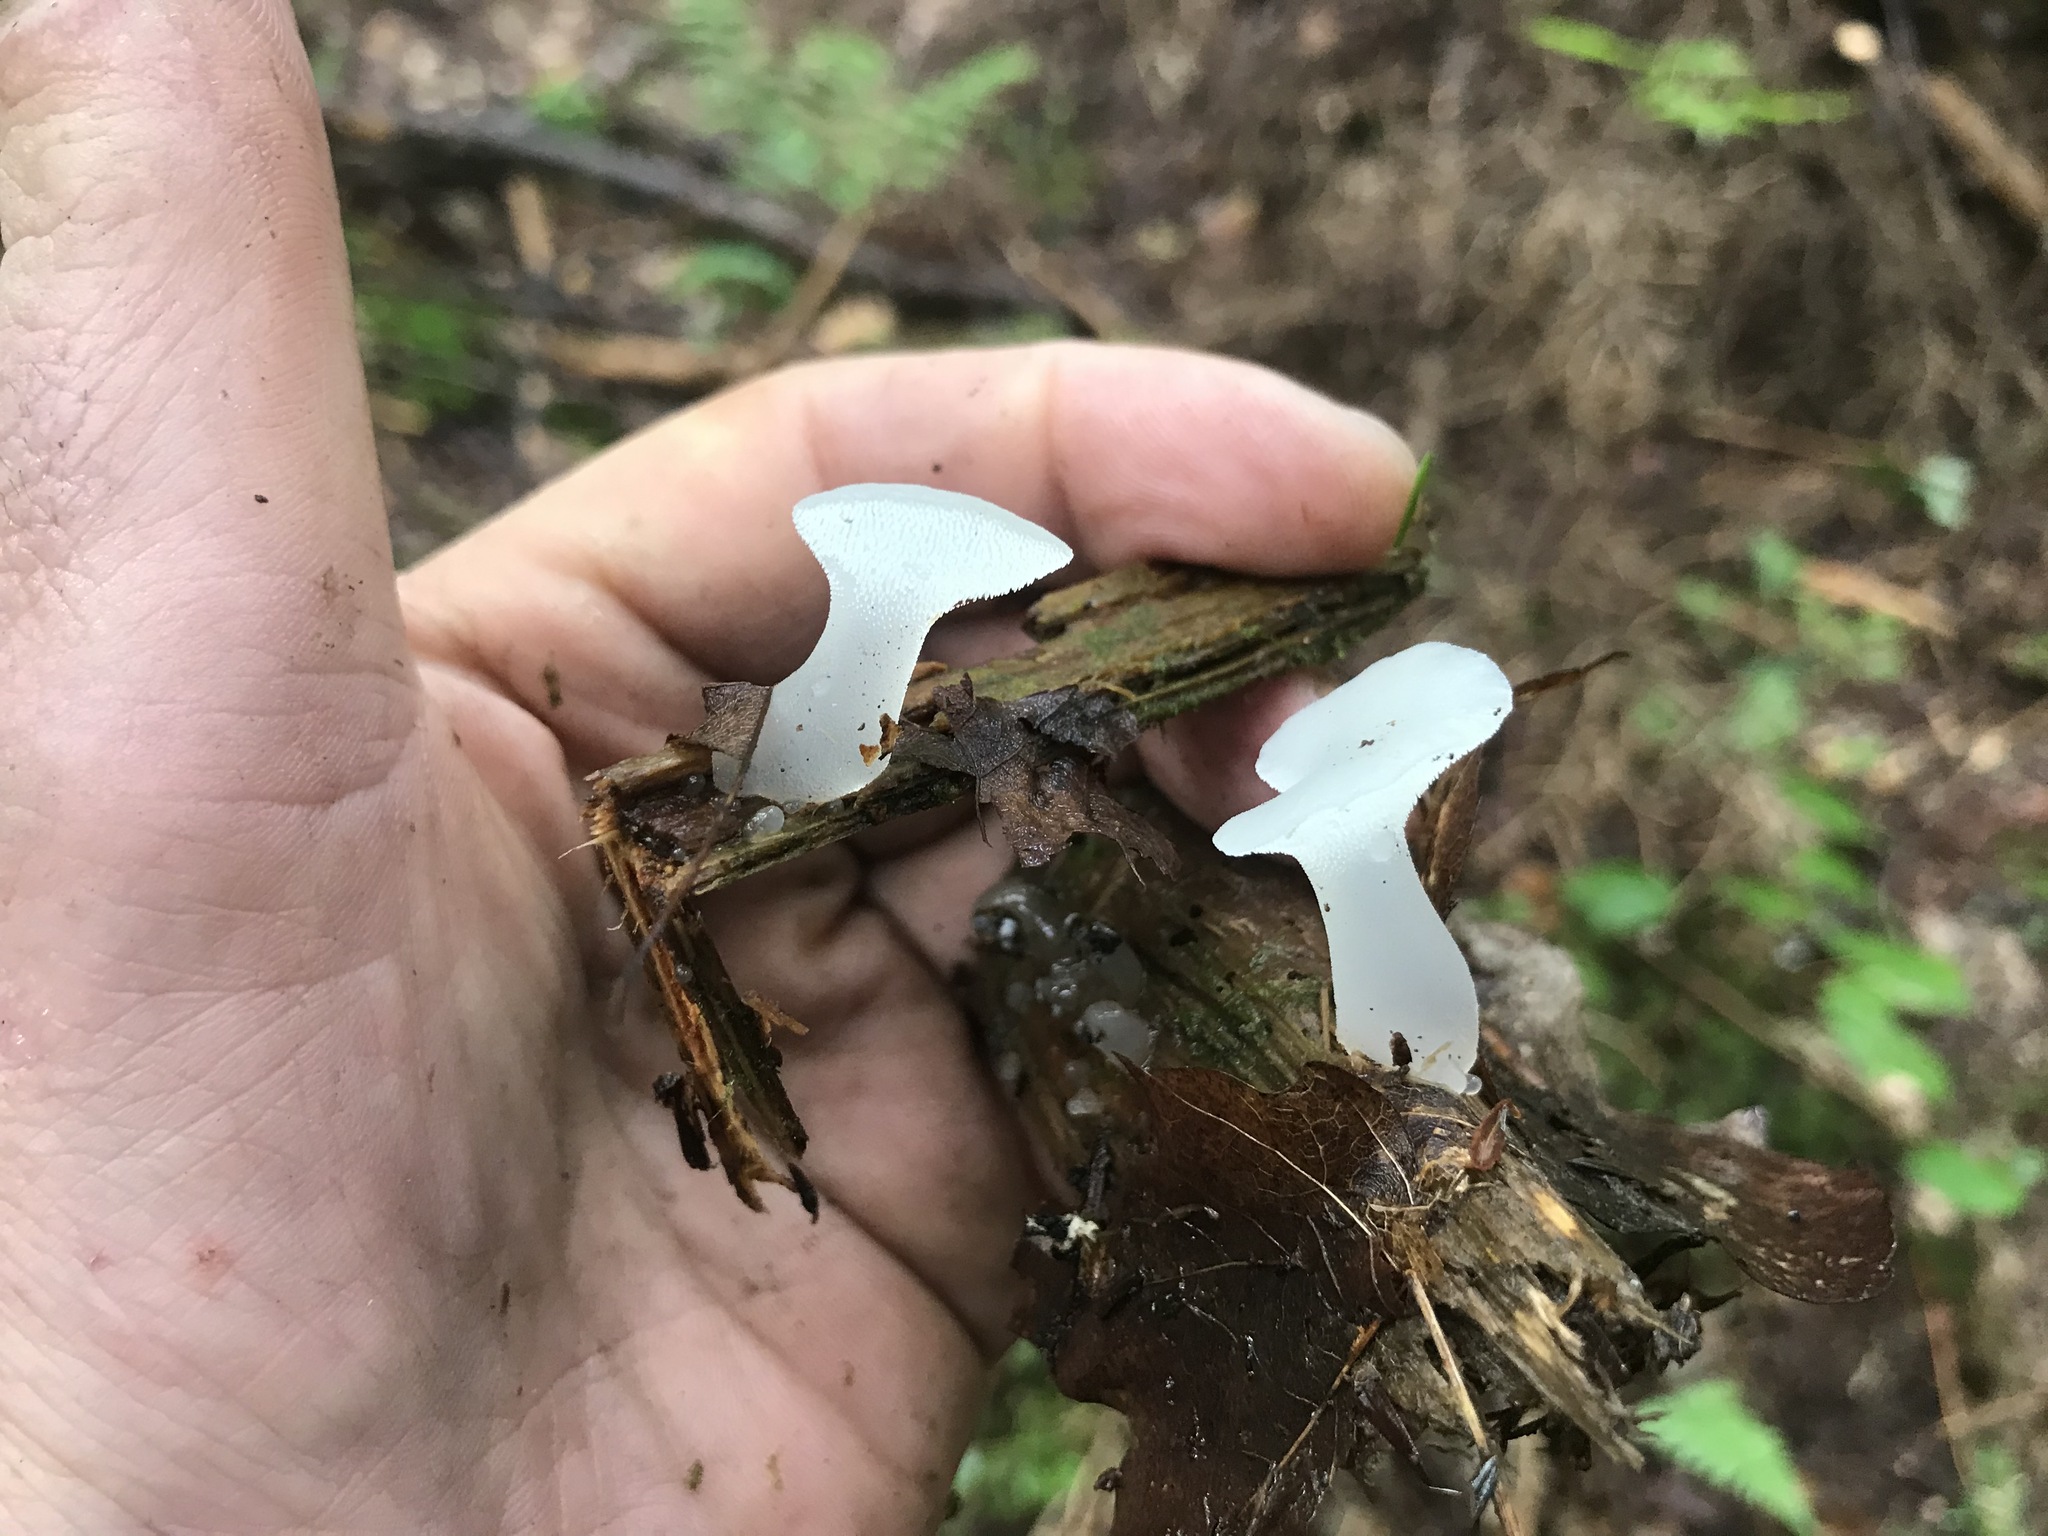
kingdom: Fungi
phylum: Basidiomycota
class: Agaricomycetes
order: Auriculariales
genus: Pseudohydnum
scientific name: Pseudohydnum gelatinosum
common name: Jelly tongue
